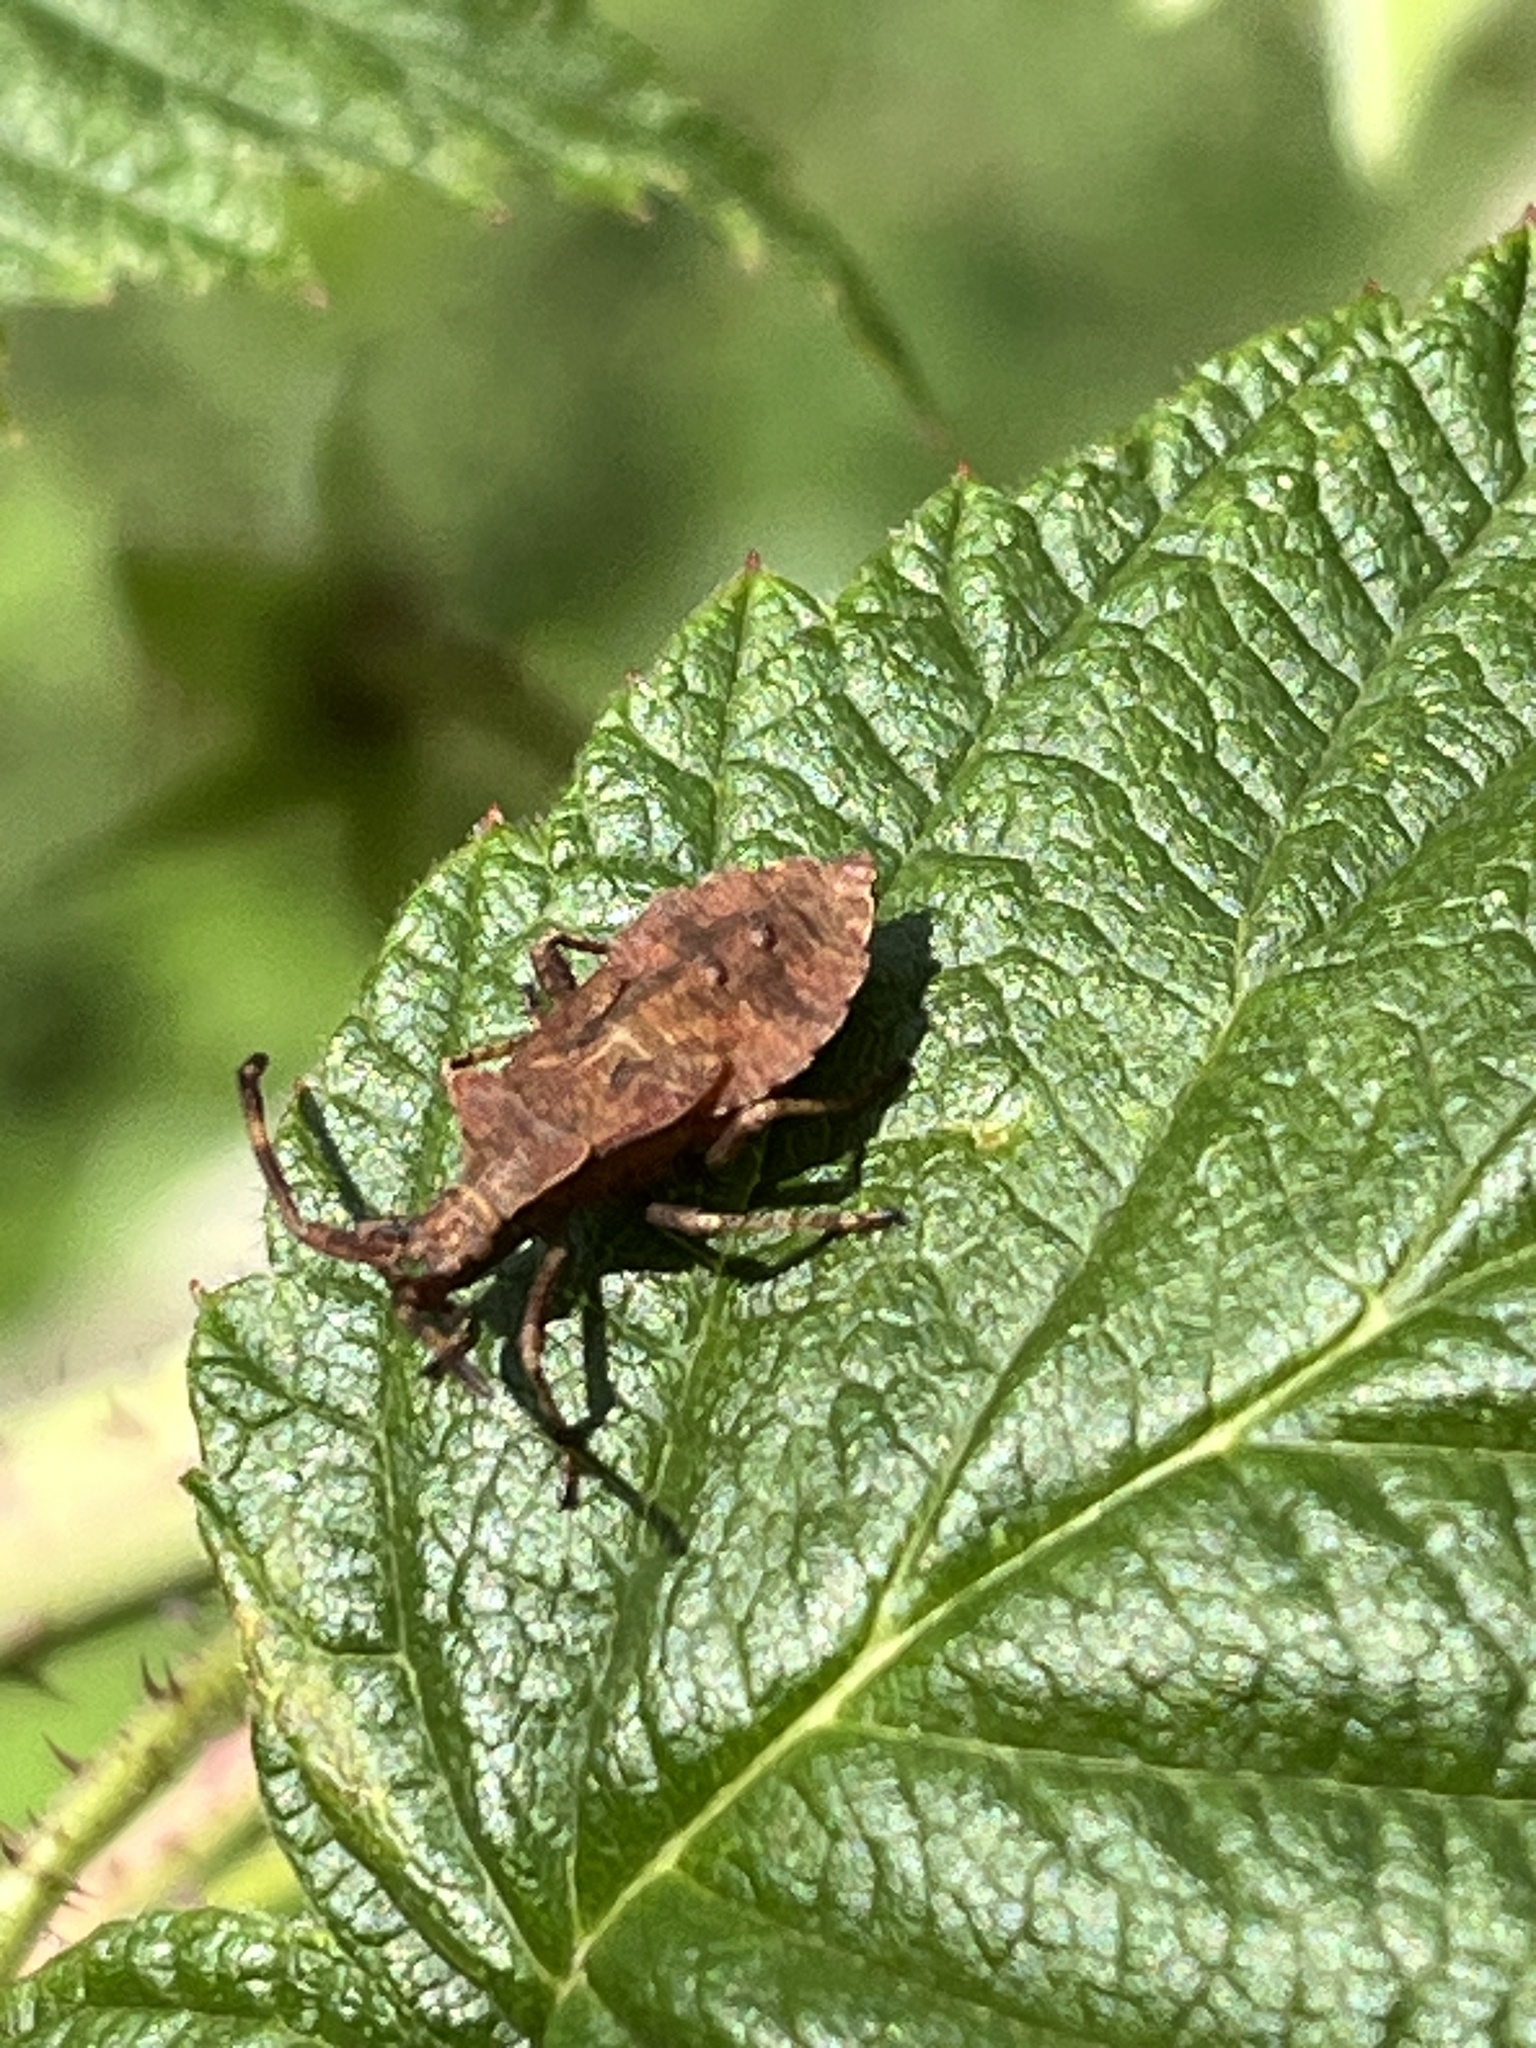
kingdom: Animalia
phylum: Arthropoda
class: Insecta
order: Hemiptera
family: Coreidae
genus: Coreus
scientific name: Coreus marginatus
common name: Dock bug
